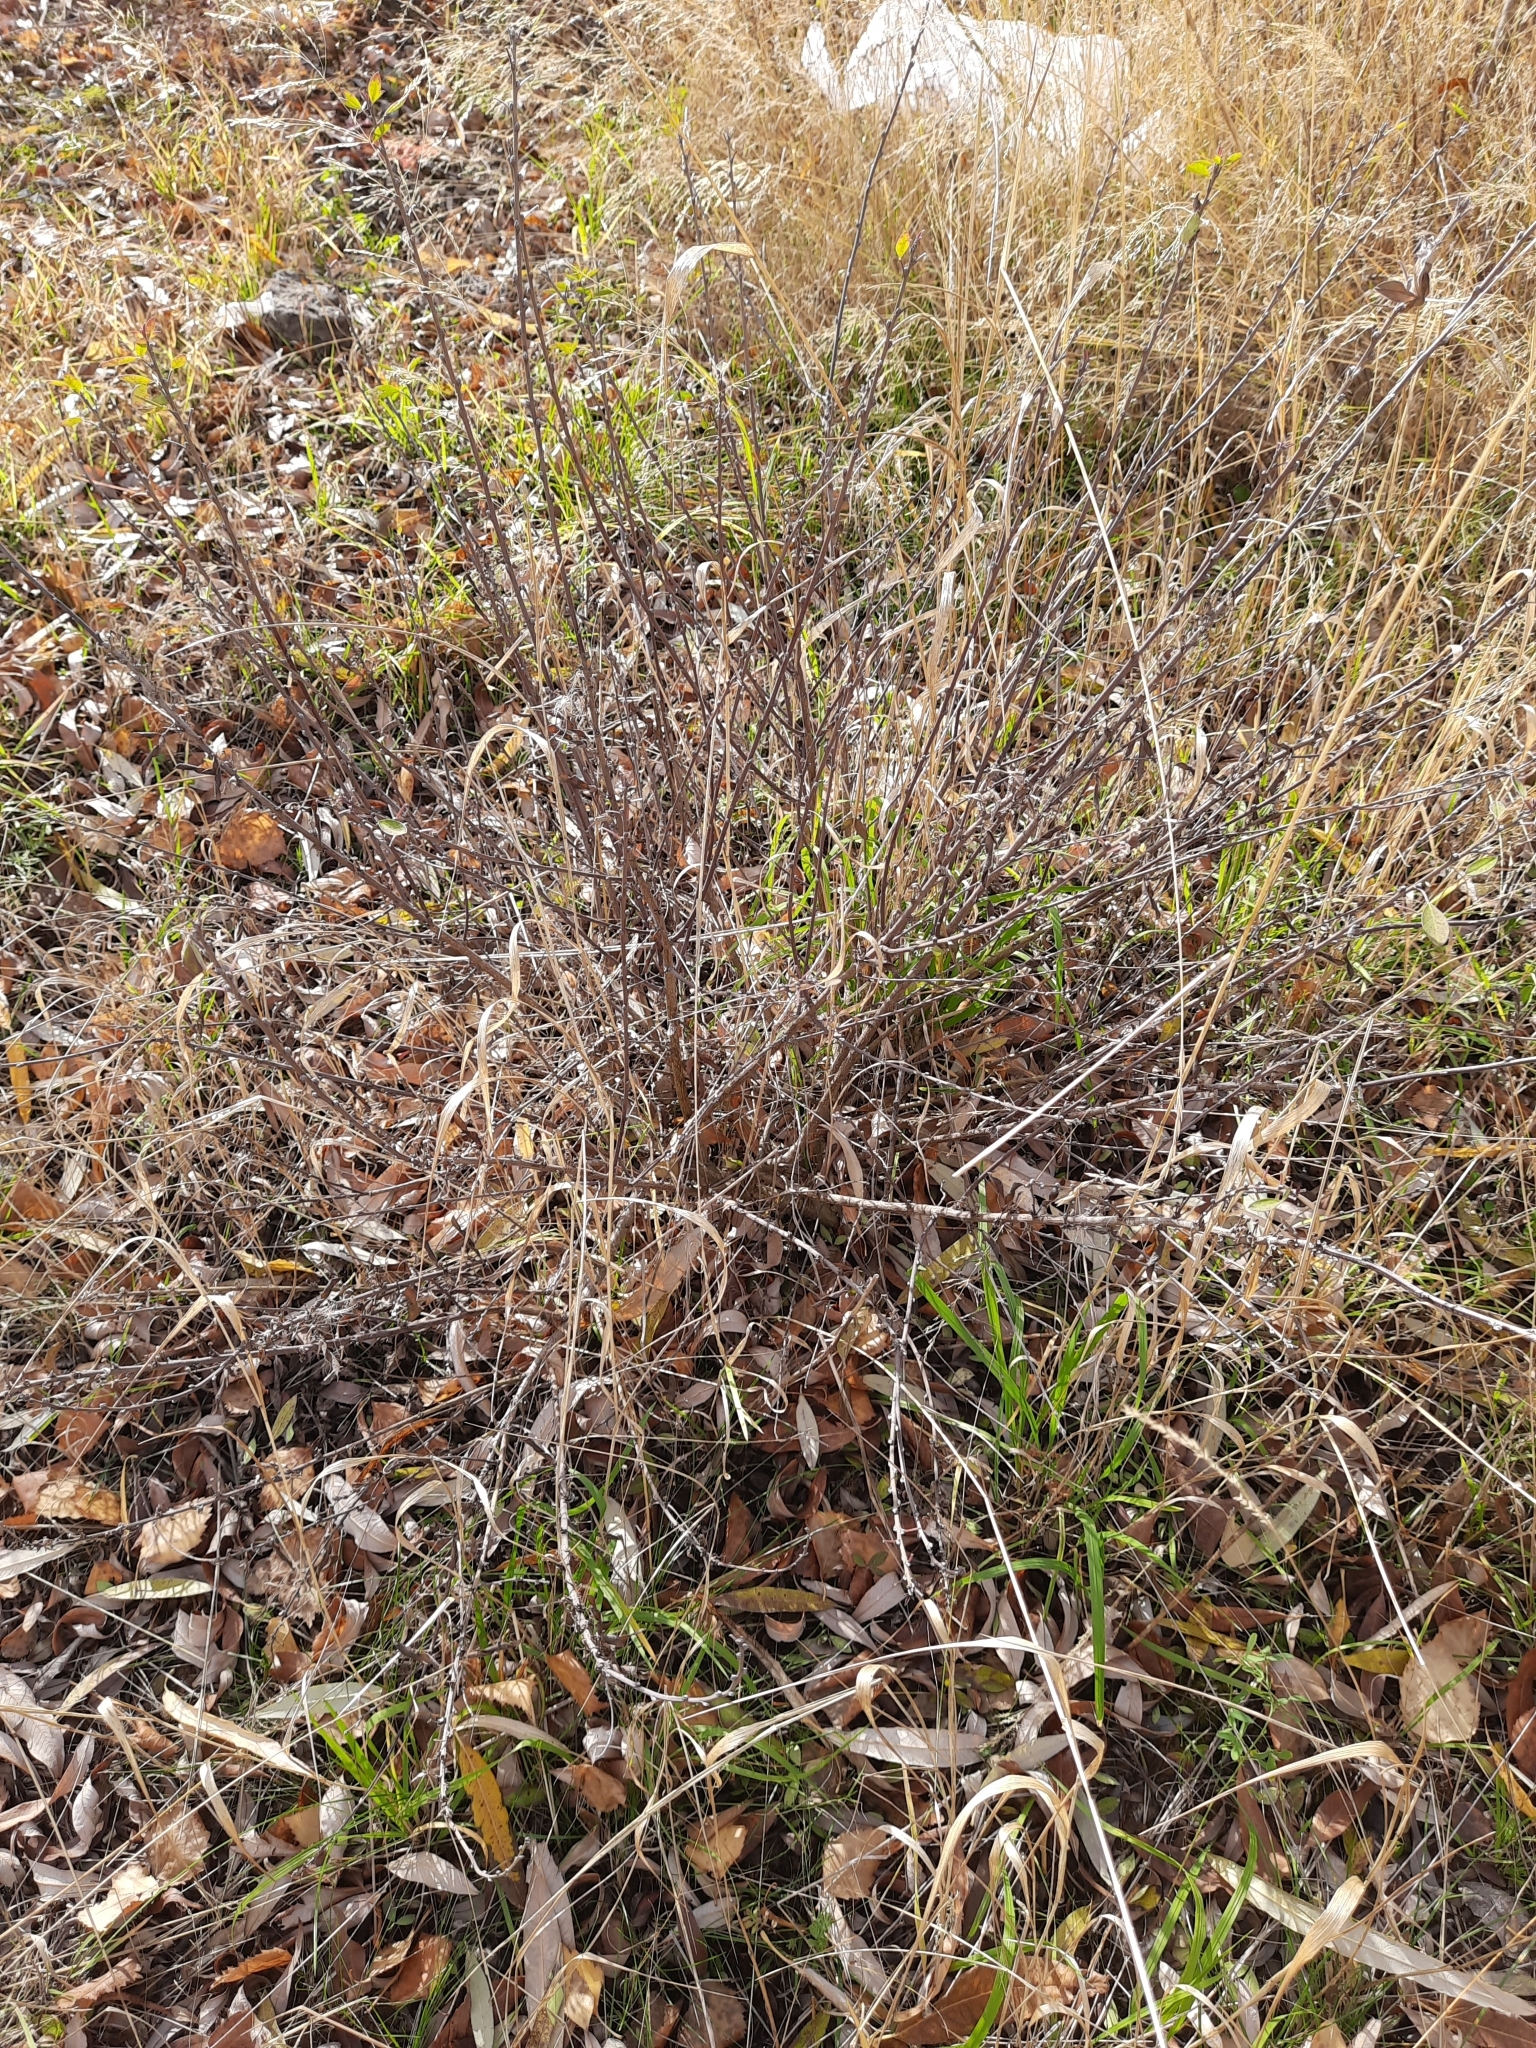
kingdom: Plantae
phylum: Tracheophyta
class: Magnoliopsida
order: Fabales
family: Fabaceae
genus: Chamaecytisus
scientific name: Chamaecytisus ruthenicus
